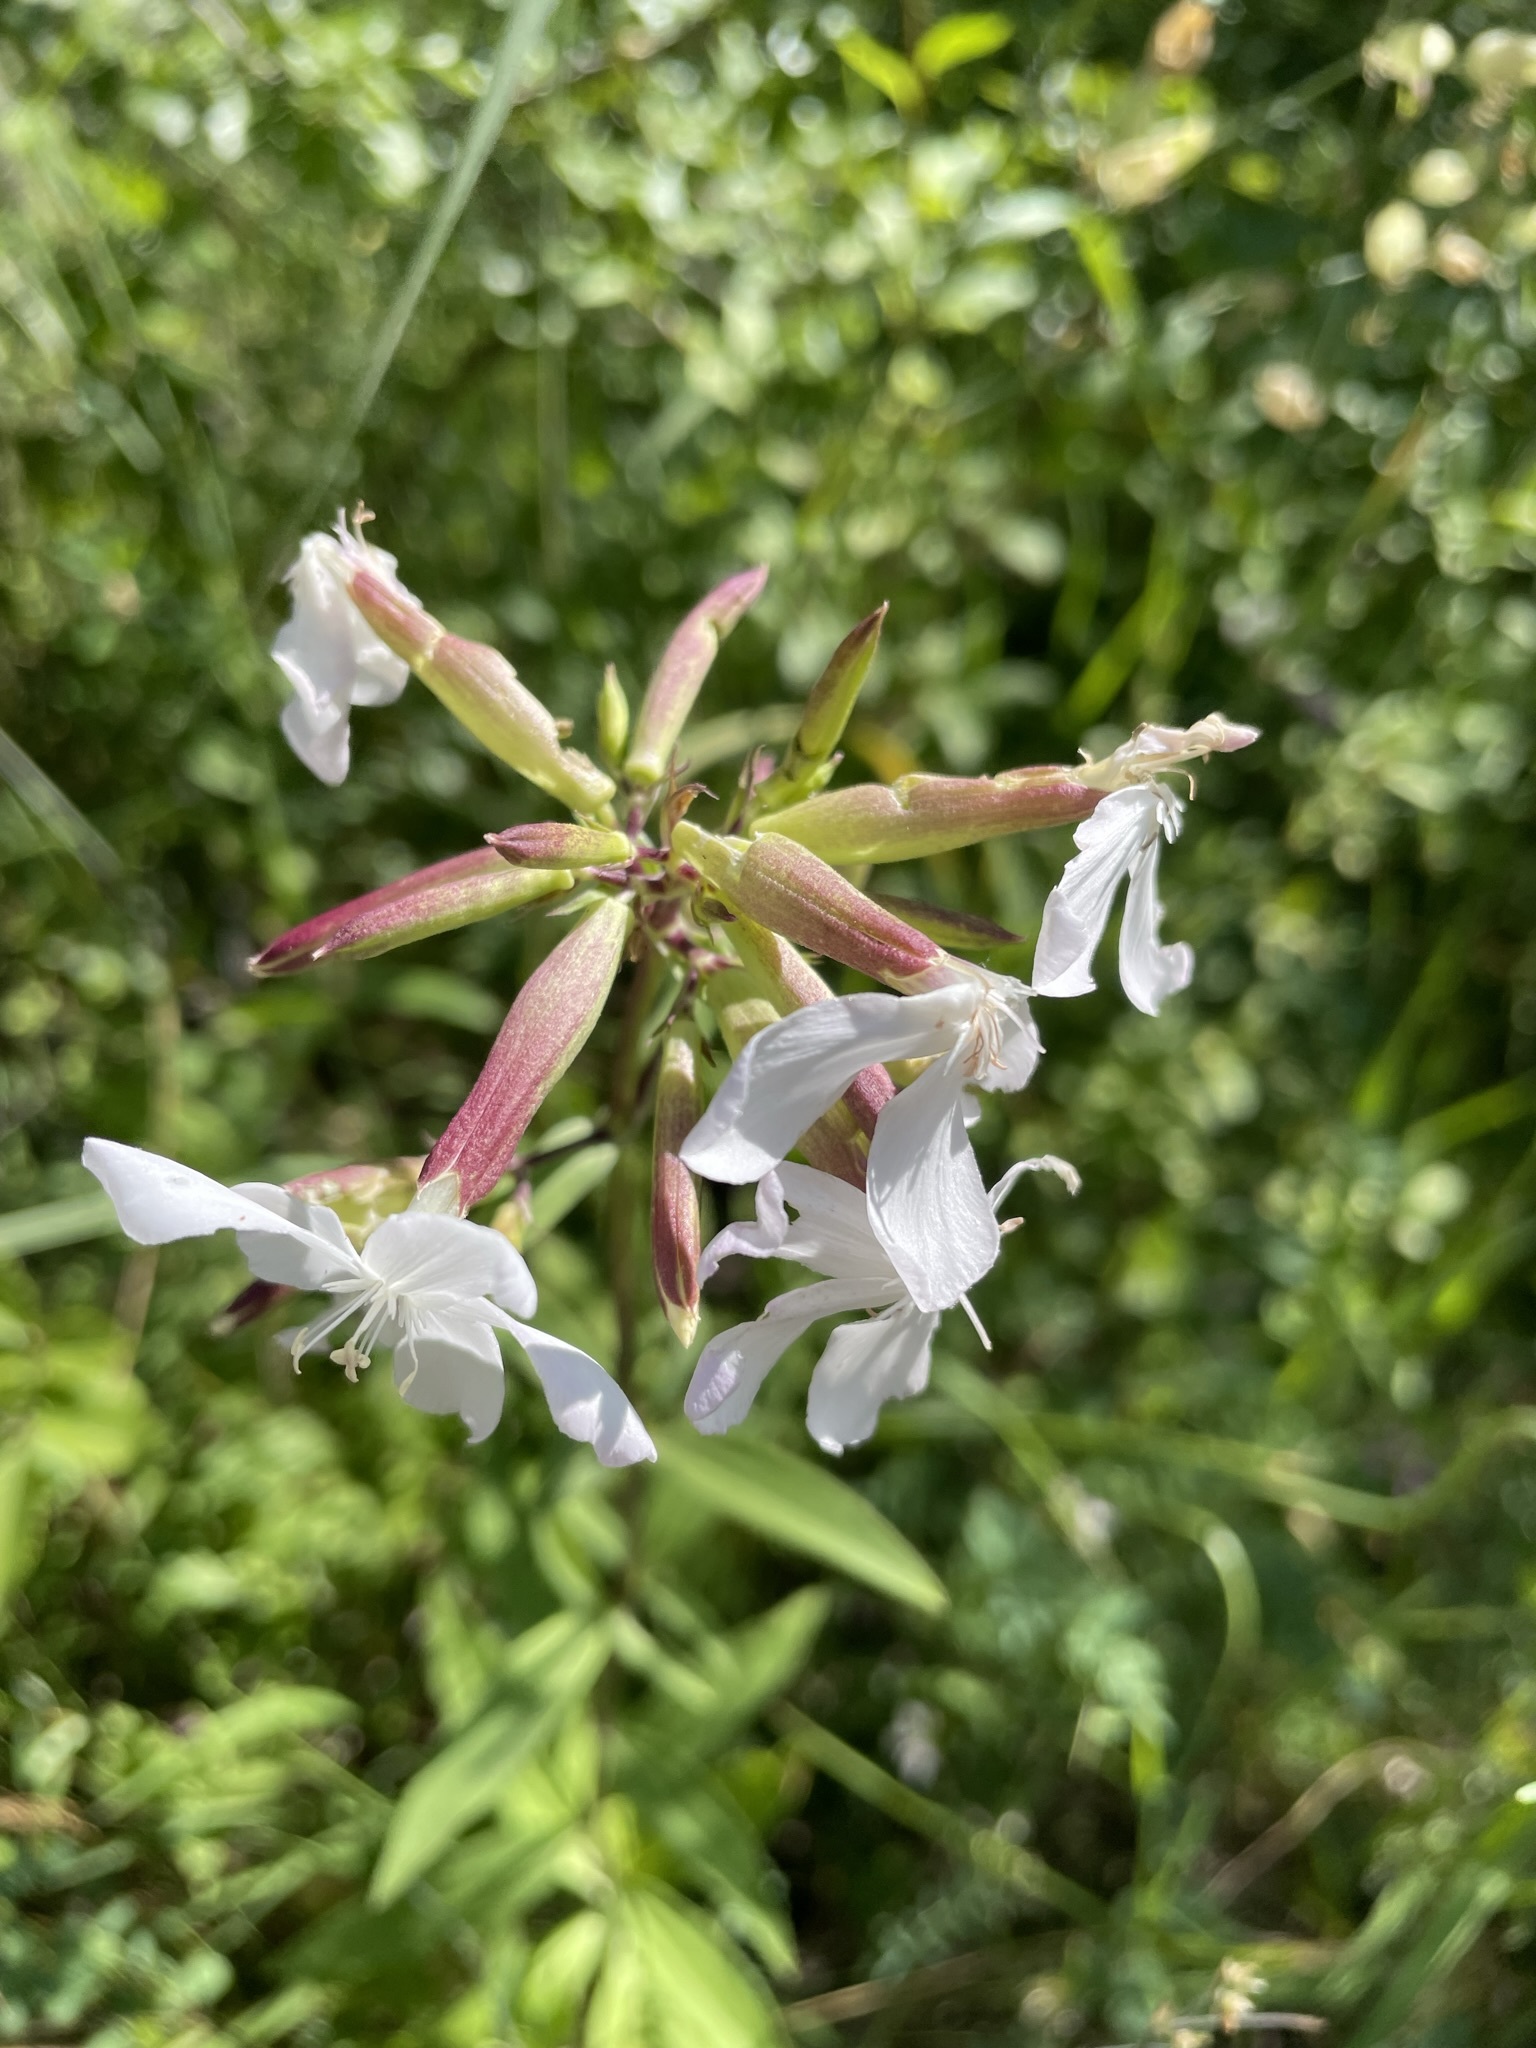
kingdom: Plantae
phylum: Tracheophyta
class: Magnoliopsida
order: Caryophyllales
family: Caryophyllaceae
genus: Saponaria
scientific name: Saponaria officinalis
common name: Soapwort
